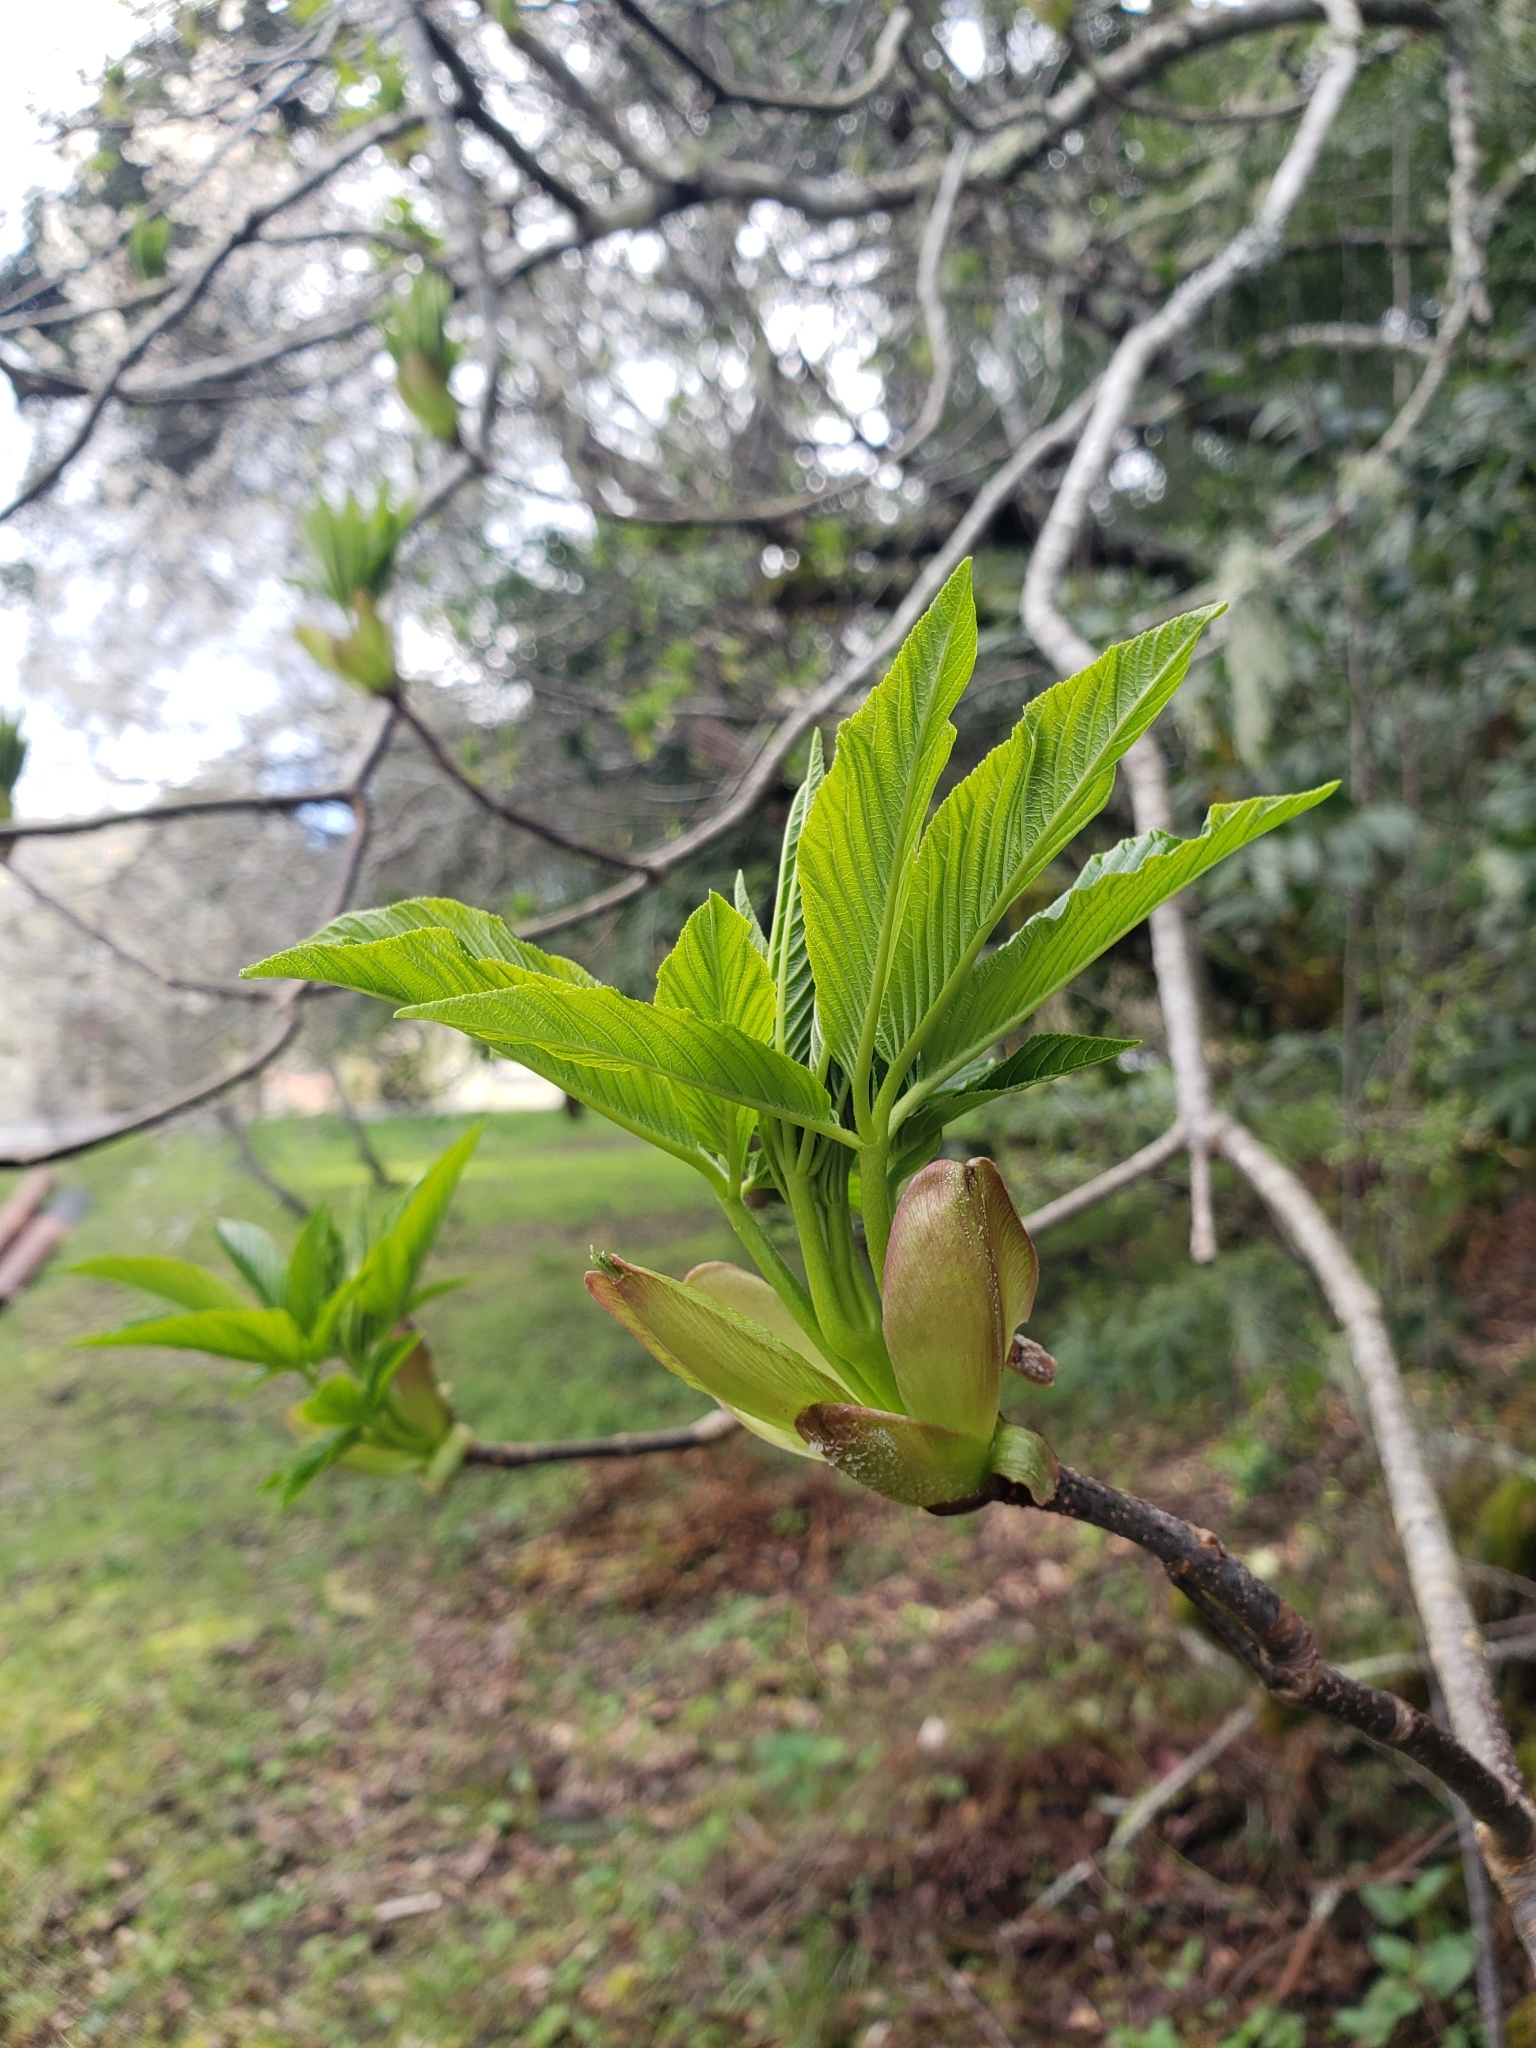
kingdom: Plantae
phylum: Tracheophyta
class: Magnoliopsida
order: Sapindales
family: Sapindaceae
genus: Aesculus
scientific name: Aesculus californica
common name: California buckeye
